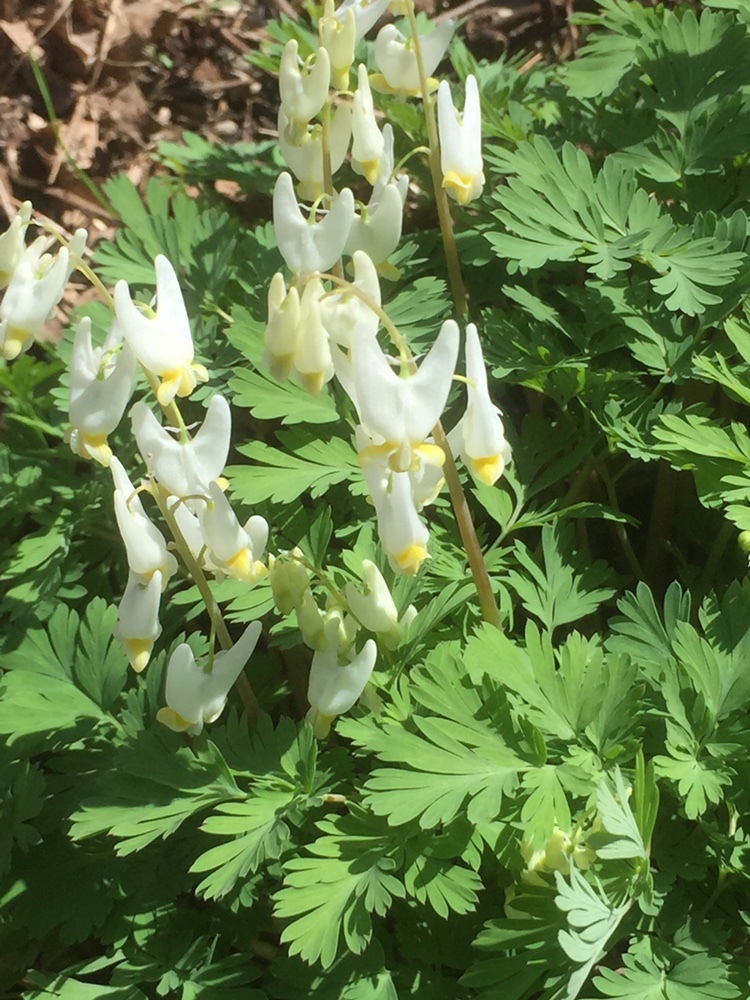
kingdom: Plantae
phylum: Tracheophyta
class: Magnoliopsida
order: Ranunculales
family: Papaveraceae
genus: Dicentra
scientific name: Dicentra cucullaria
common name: Dutchman's breeches
